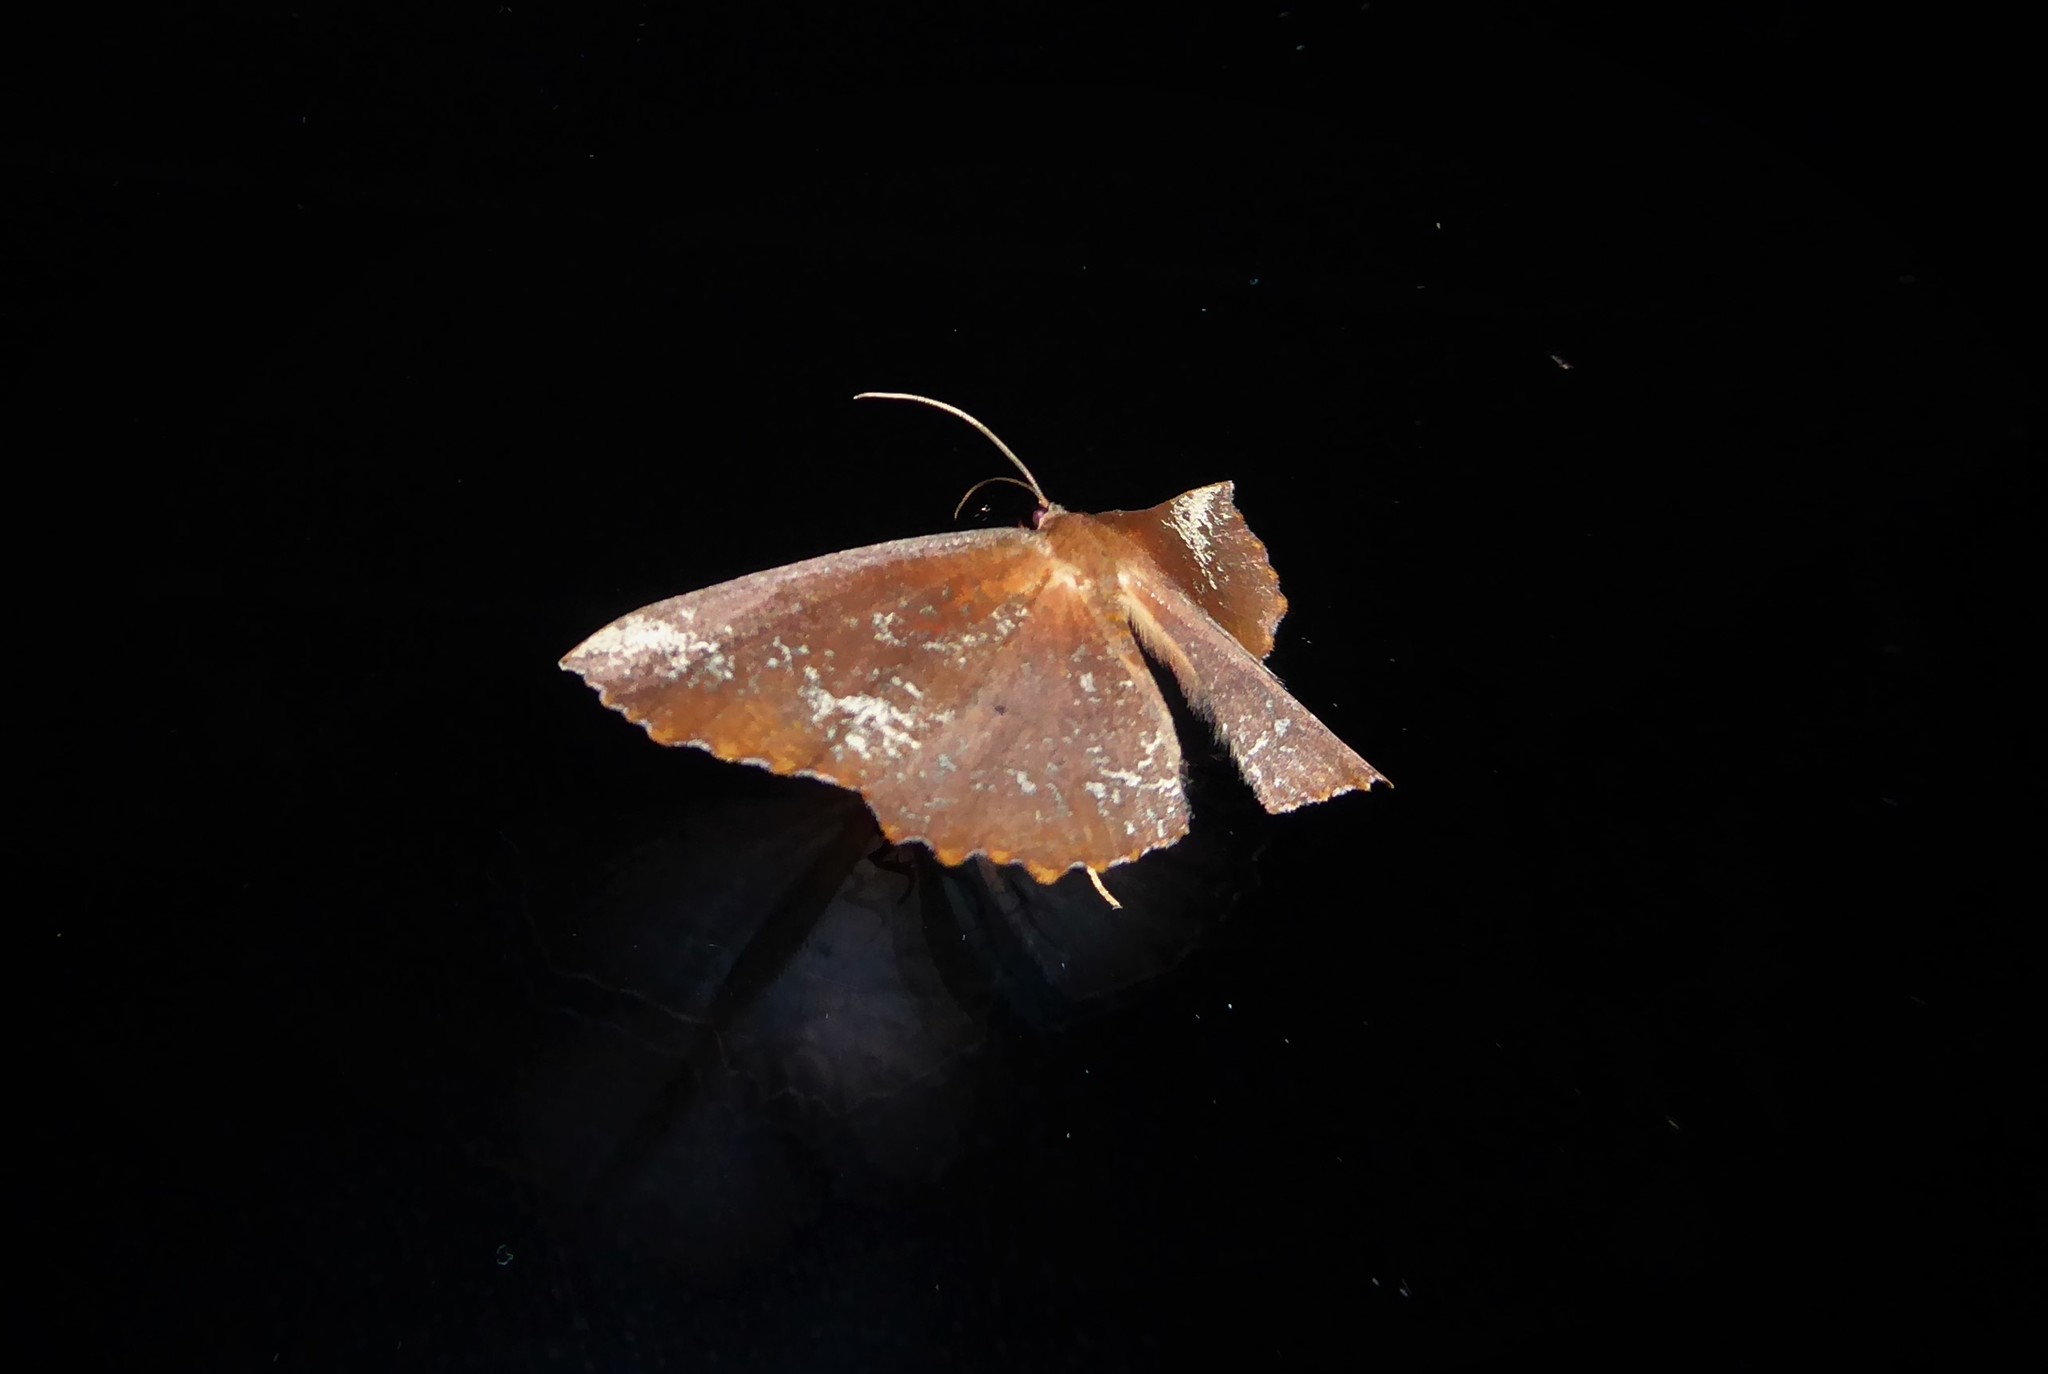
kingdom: Animalia
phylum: Arthropoda
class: Insecta
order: Lepidoptera
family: Geometridae
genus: Xyridacma
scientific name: Xyridacma ustaria
